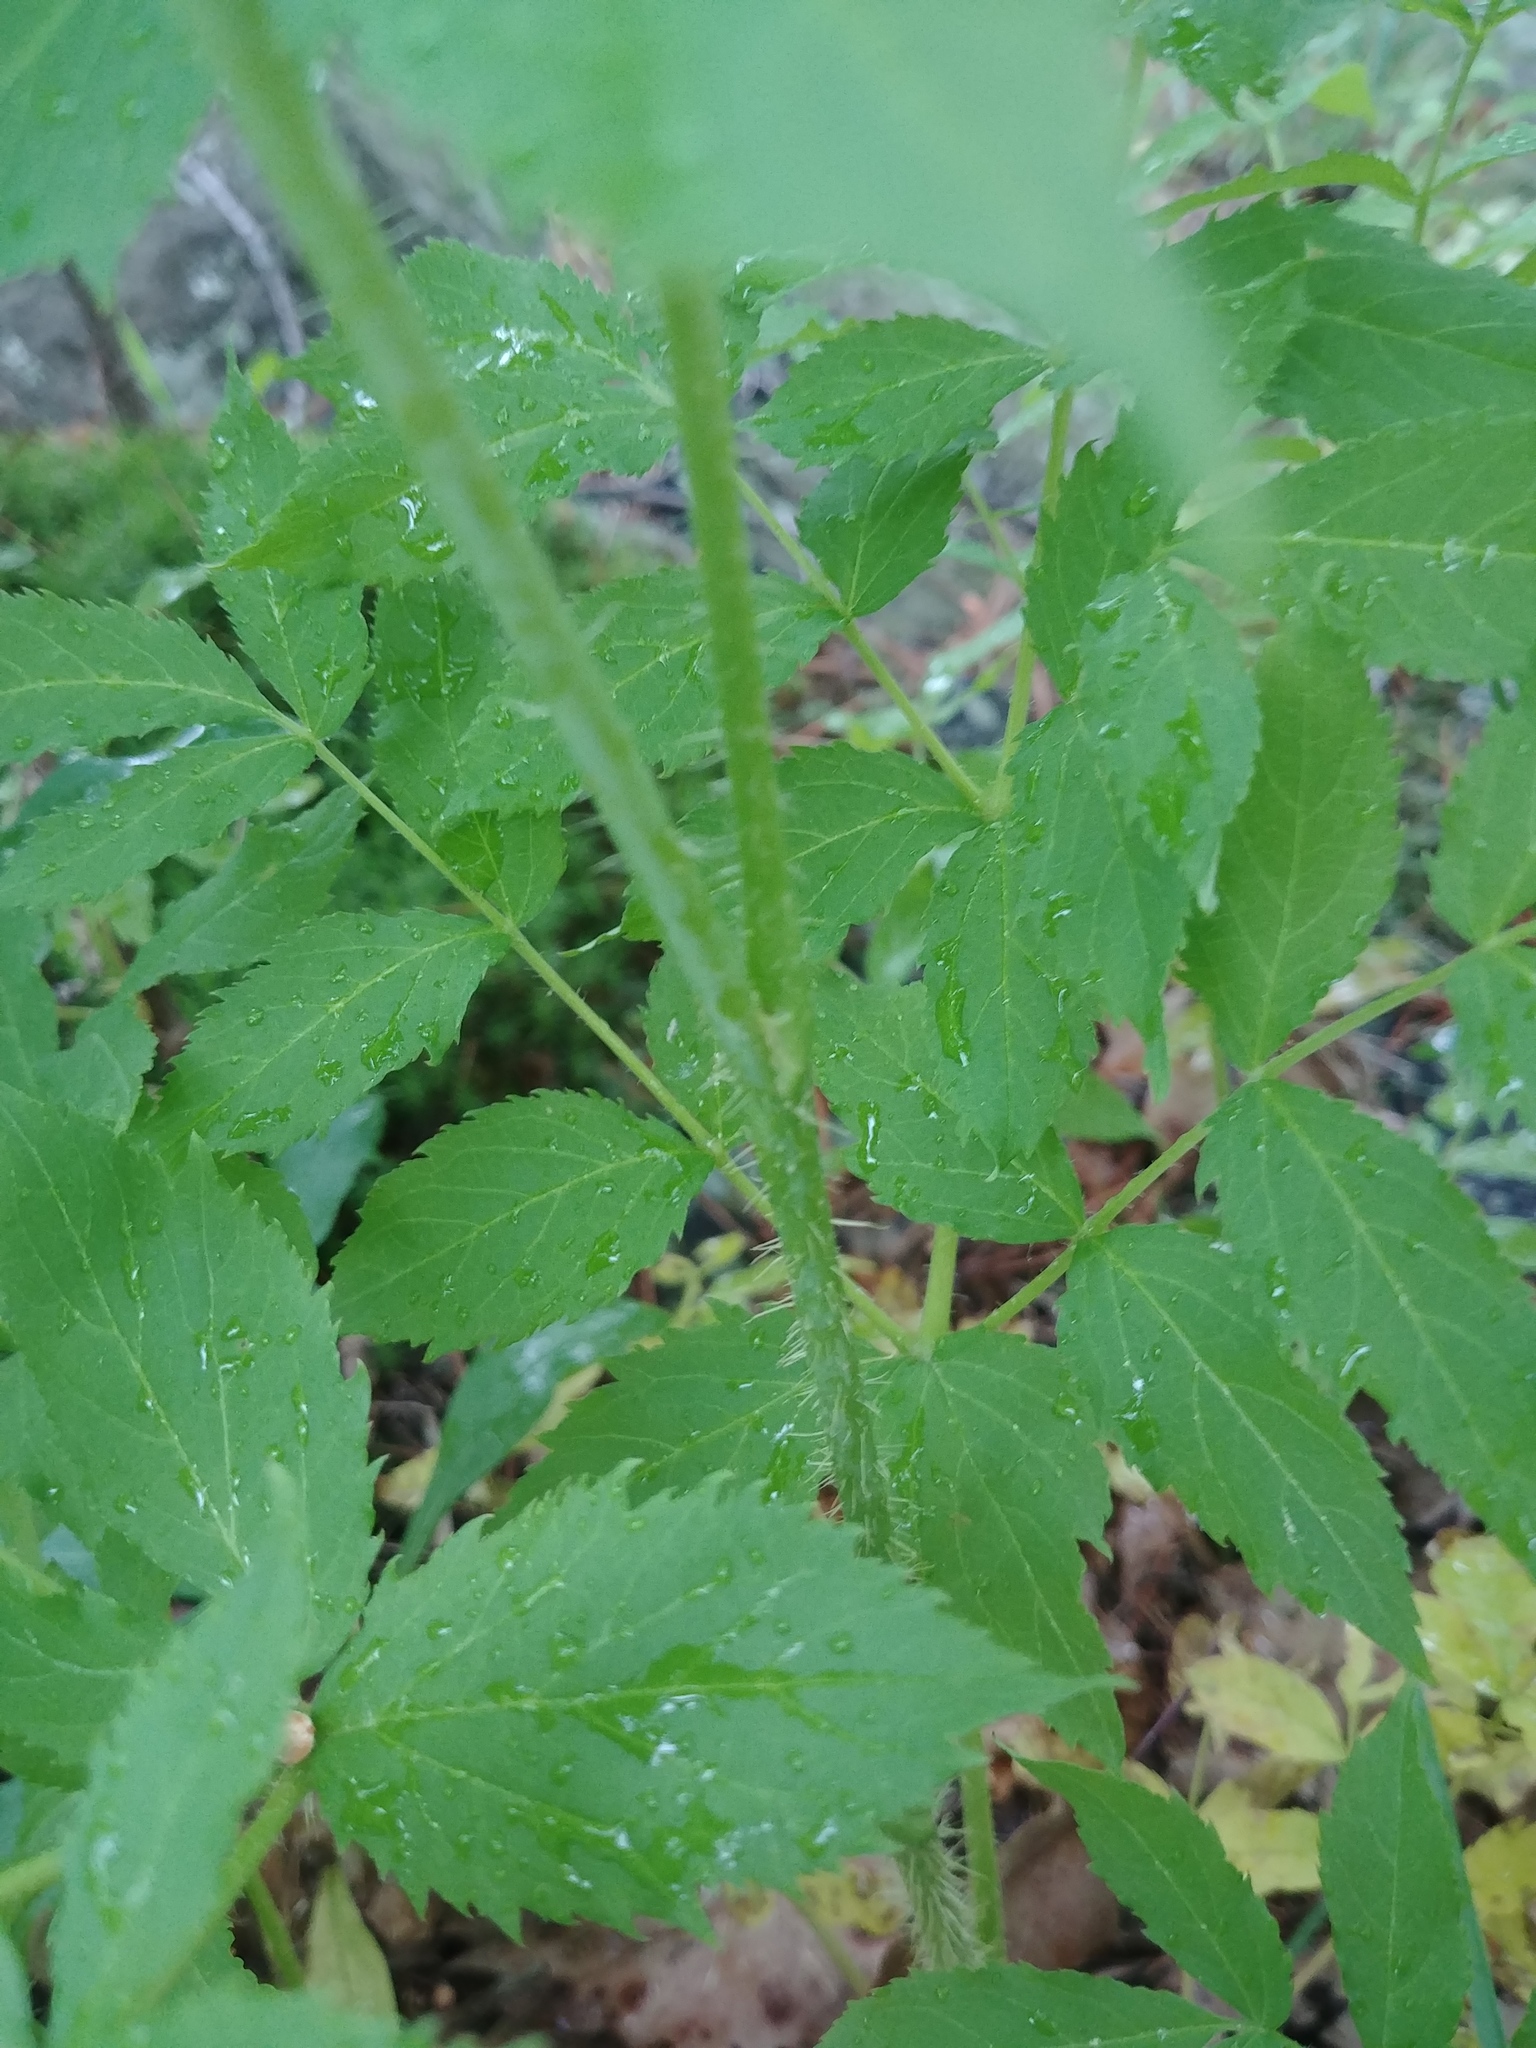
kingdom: Plantae
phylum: Tracheophyta
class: Magnoliopsida
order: Apiales
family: Araliaceae
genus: Aralia
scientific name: Aralia hispida
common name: Bristly sarsaparilla
